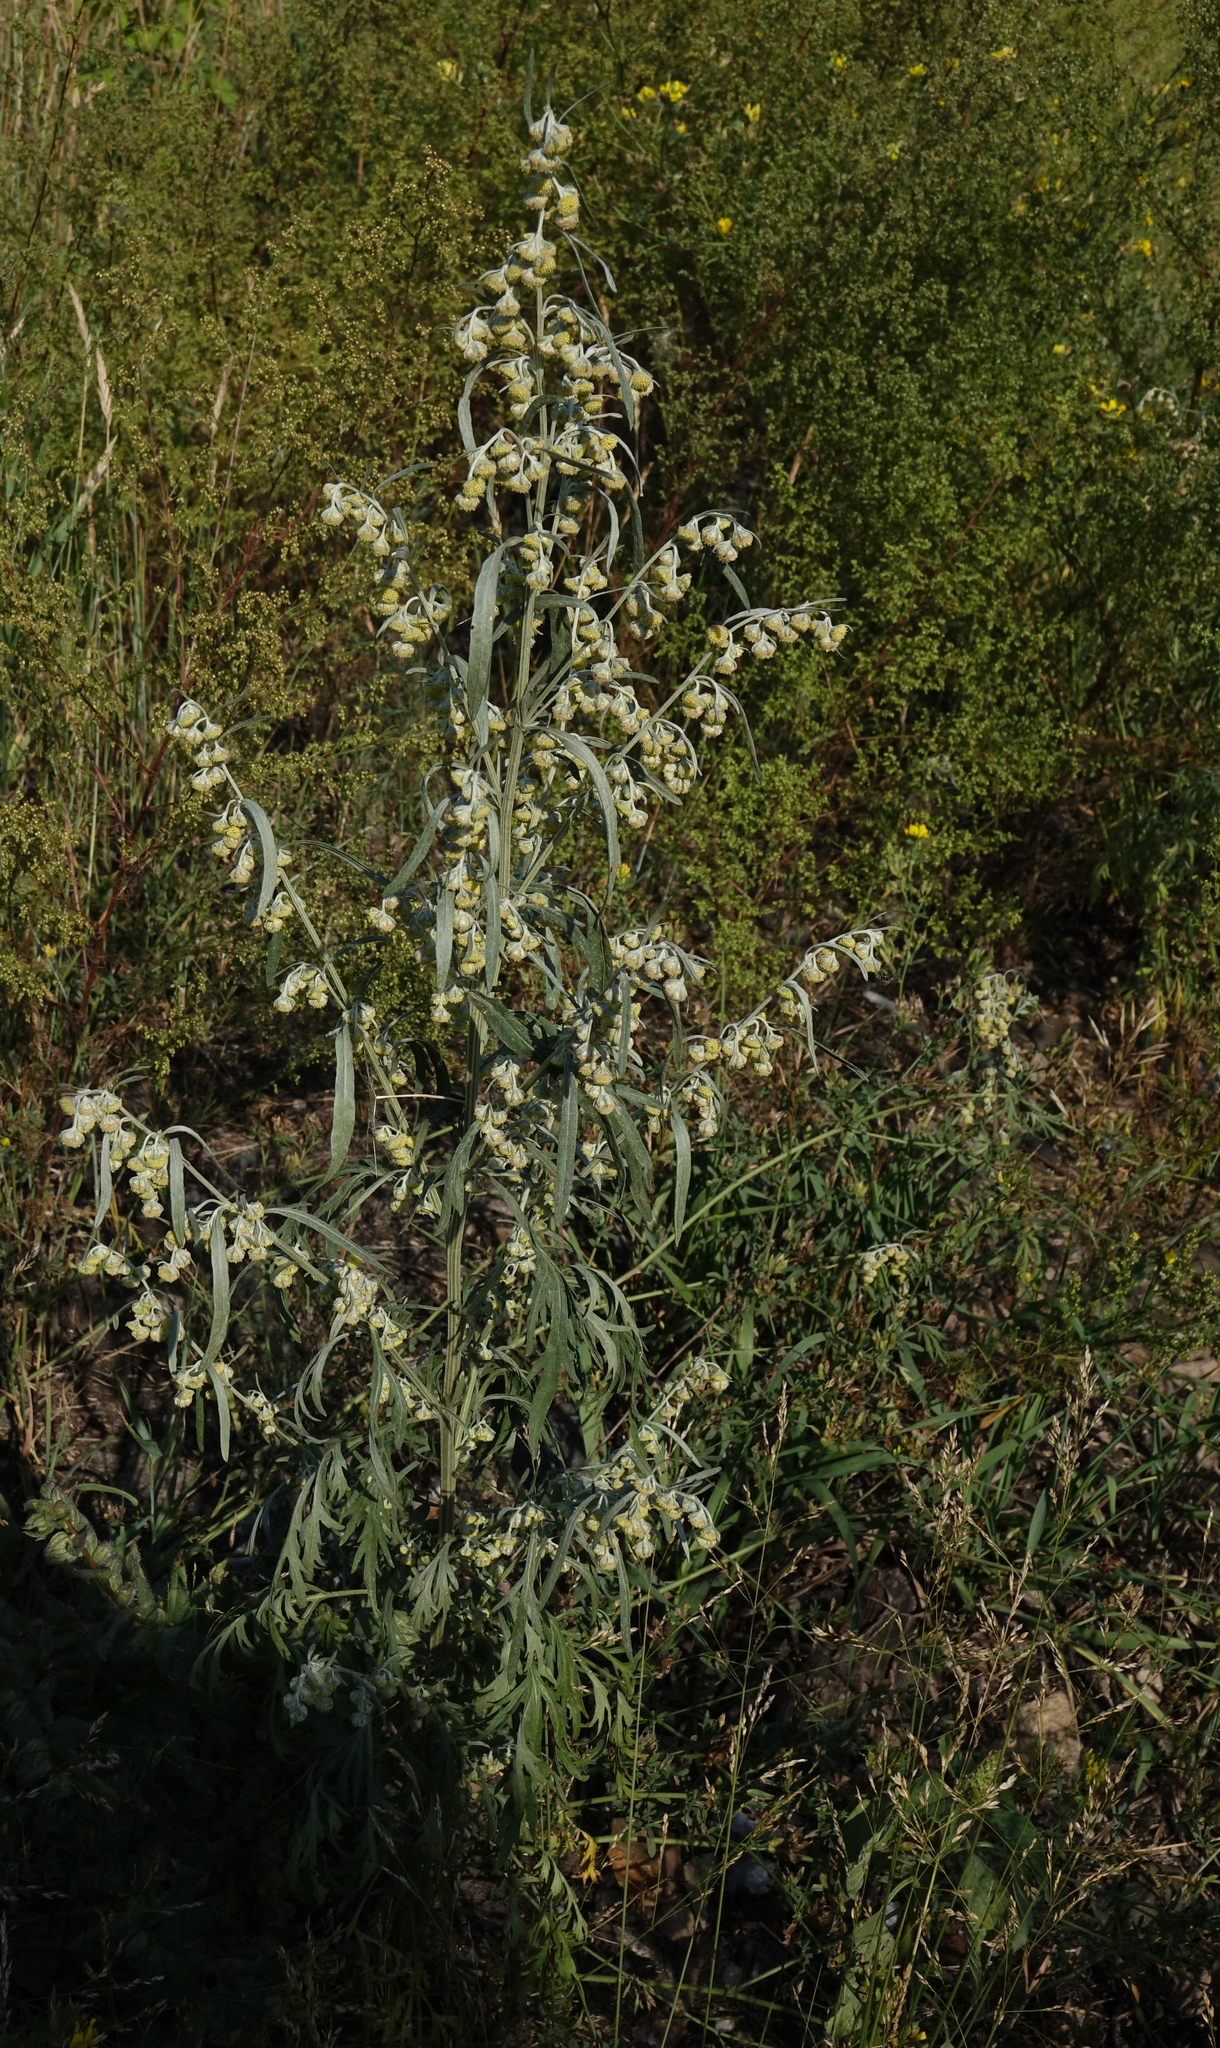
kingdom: Plantae
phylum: Tracheophyta
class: Magnoliopsida
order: Asterales
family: Asteraceae
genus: Artemisia
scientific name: Artemisia sieversiana
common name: Sieversian wormwood
